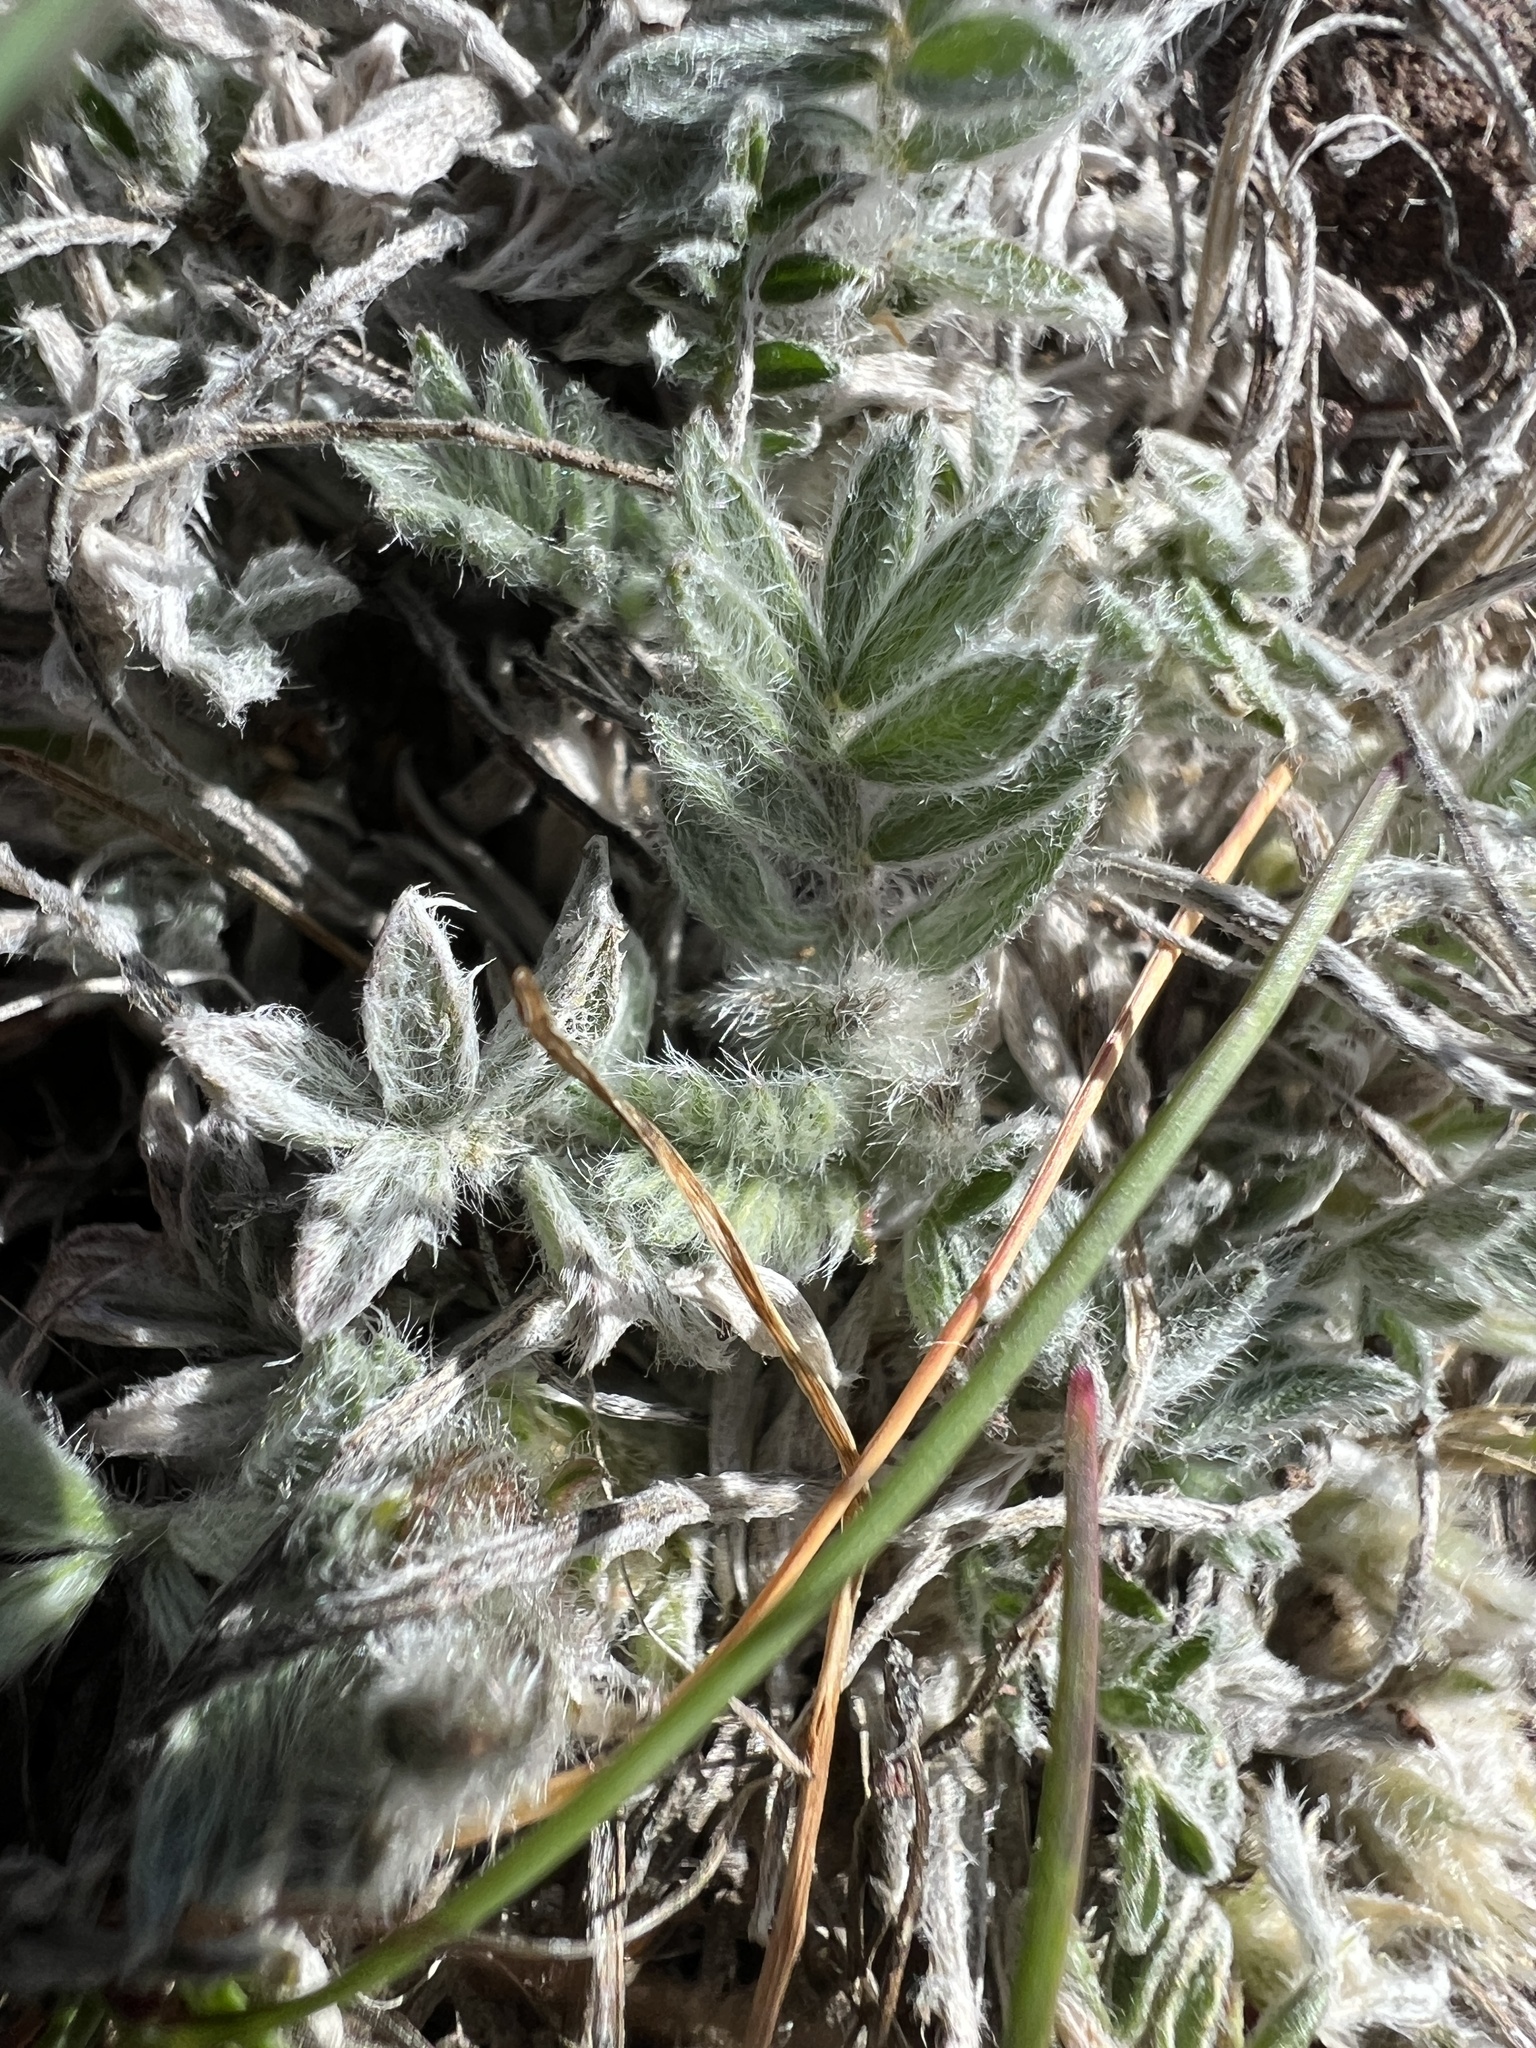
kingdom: Plantae
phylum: Tracheophyta
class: Magnoliopsida
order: Fabales
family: Fabaceae
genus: Astragalus
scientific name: Astragalus purshii
